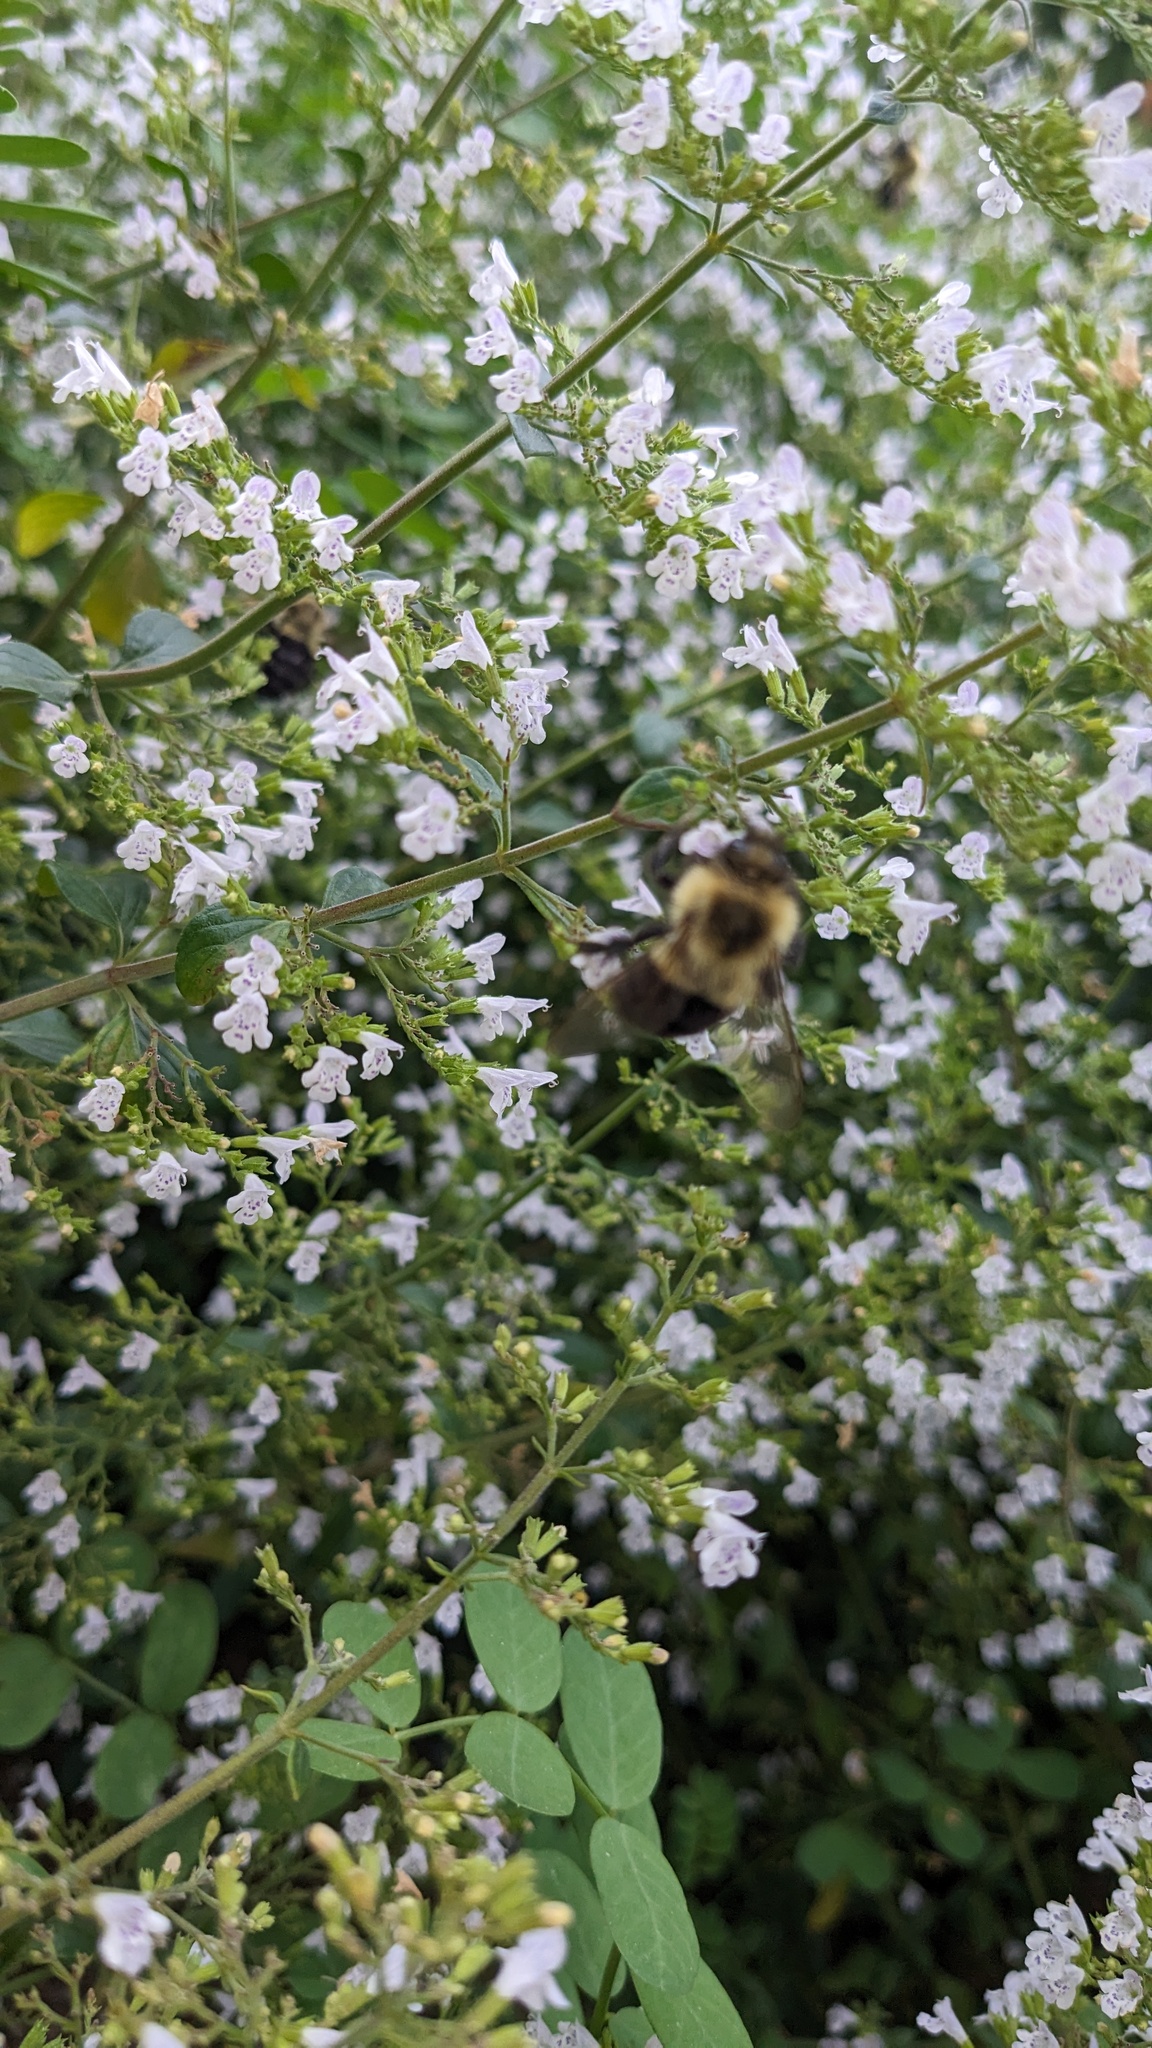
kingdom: Animalia
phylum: Arthropoda
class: Insecta
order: Hymenoptera
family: Apidae
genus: Bombus
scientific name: Bombus impatiens
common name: Common eastern bumble bee
